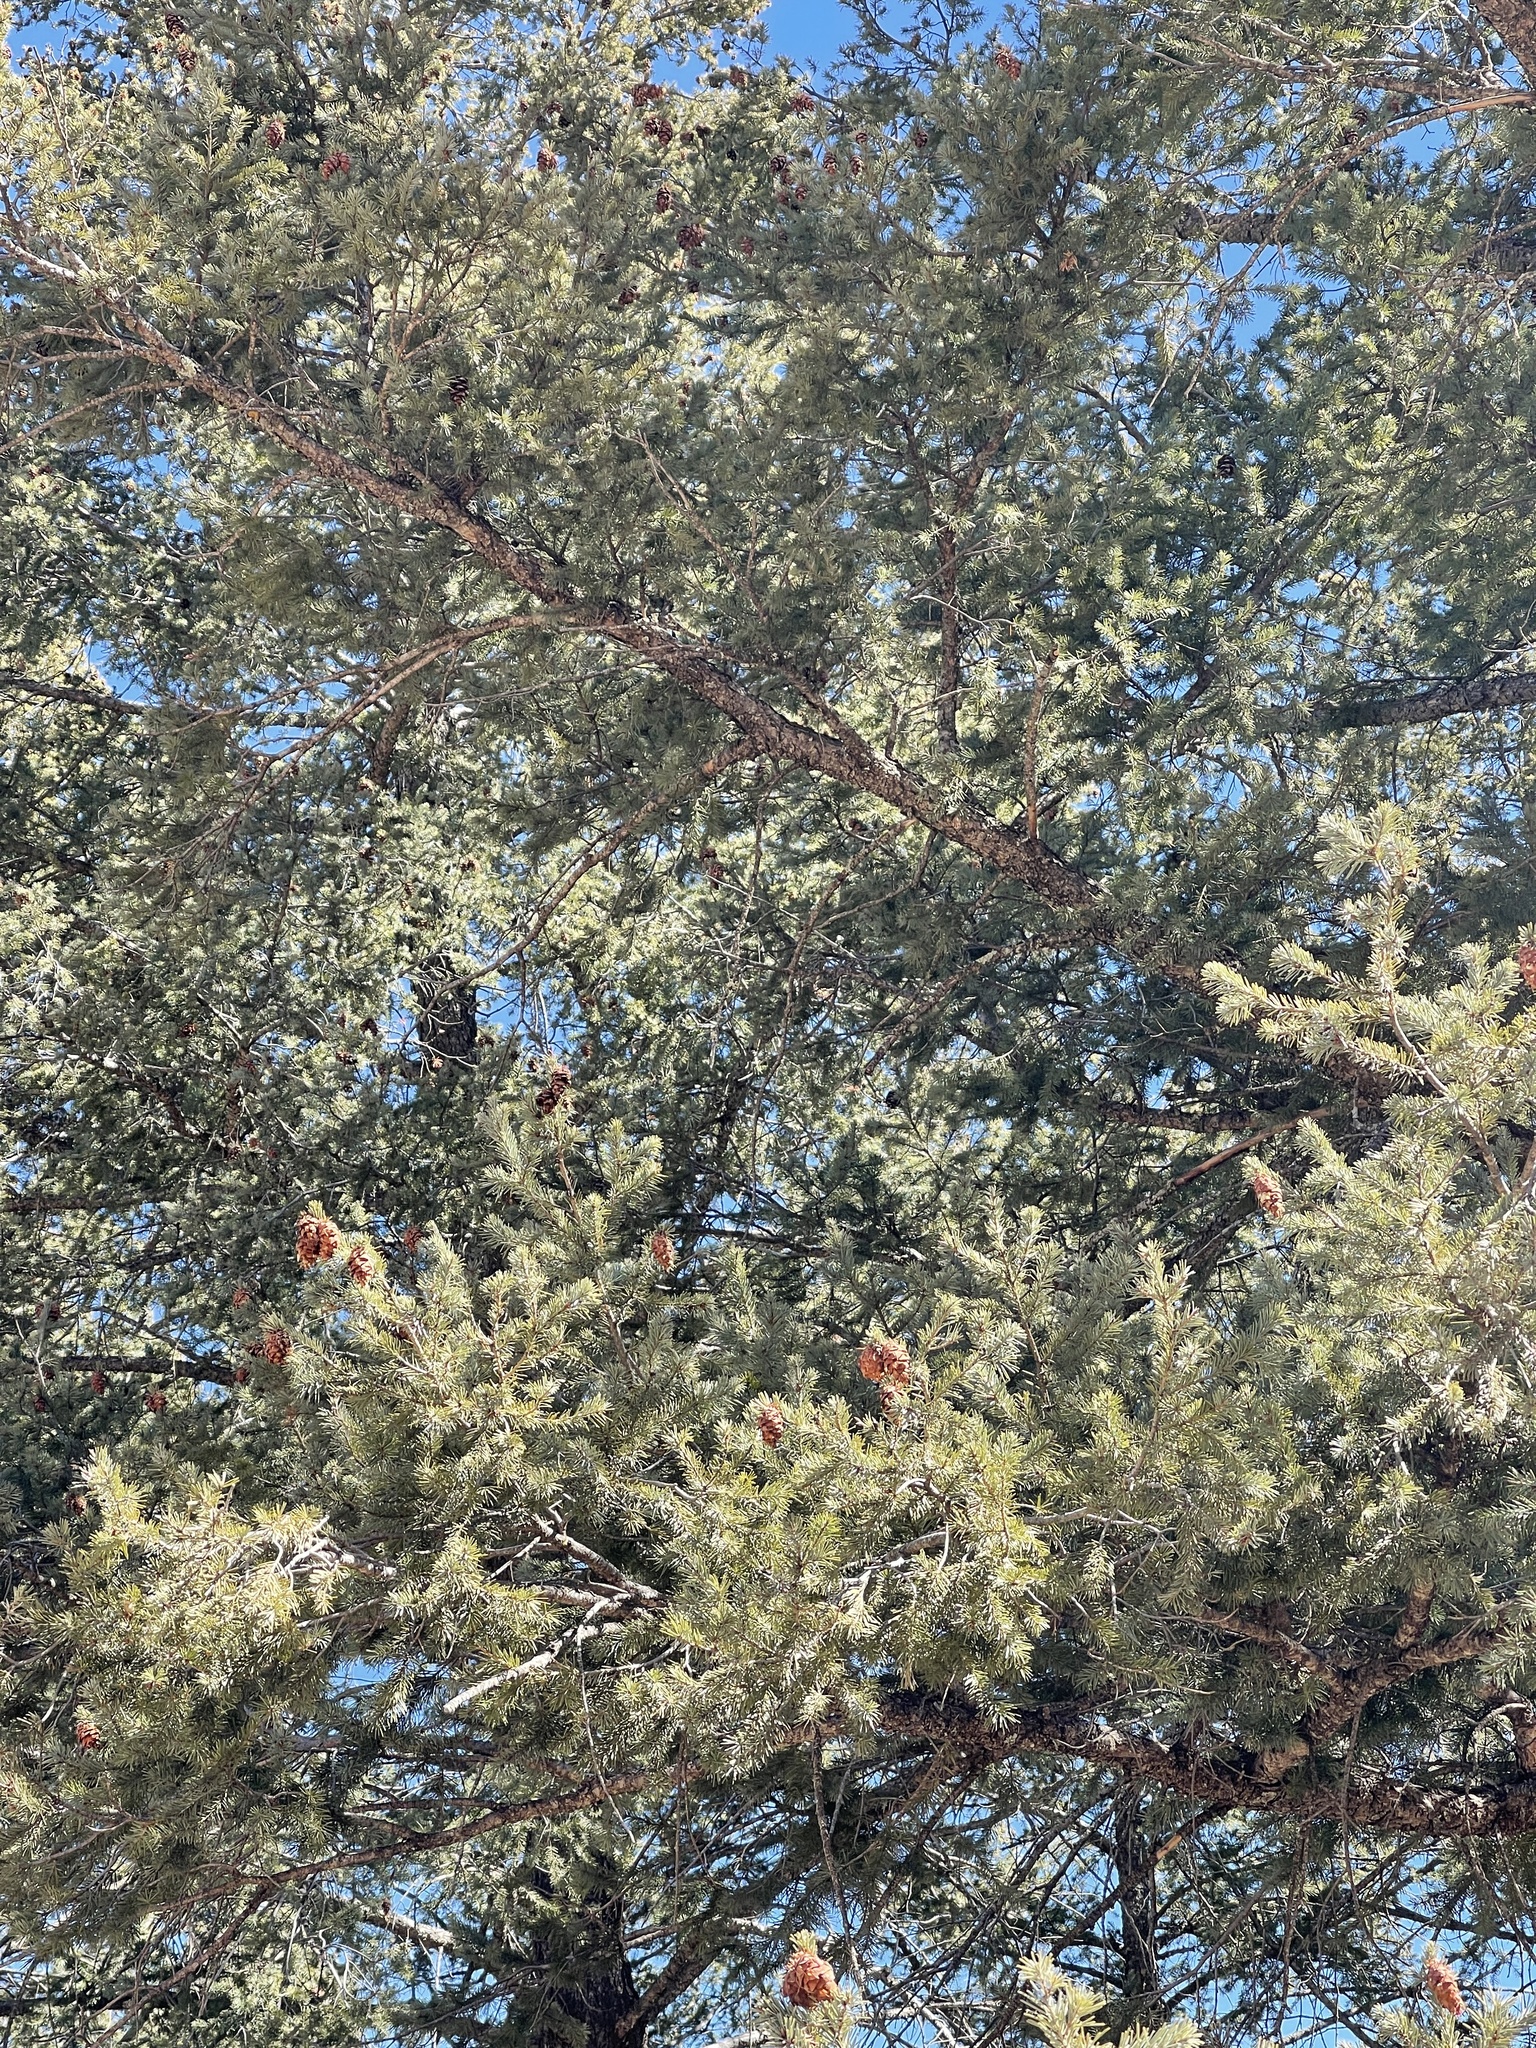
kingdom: Plantae
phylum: Tracheophyta
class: Pinopsida
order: Pinales
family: Pinaceae
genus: Pseudotsuga
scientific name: Pseudotsuga menziesii
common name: Douglas fir
